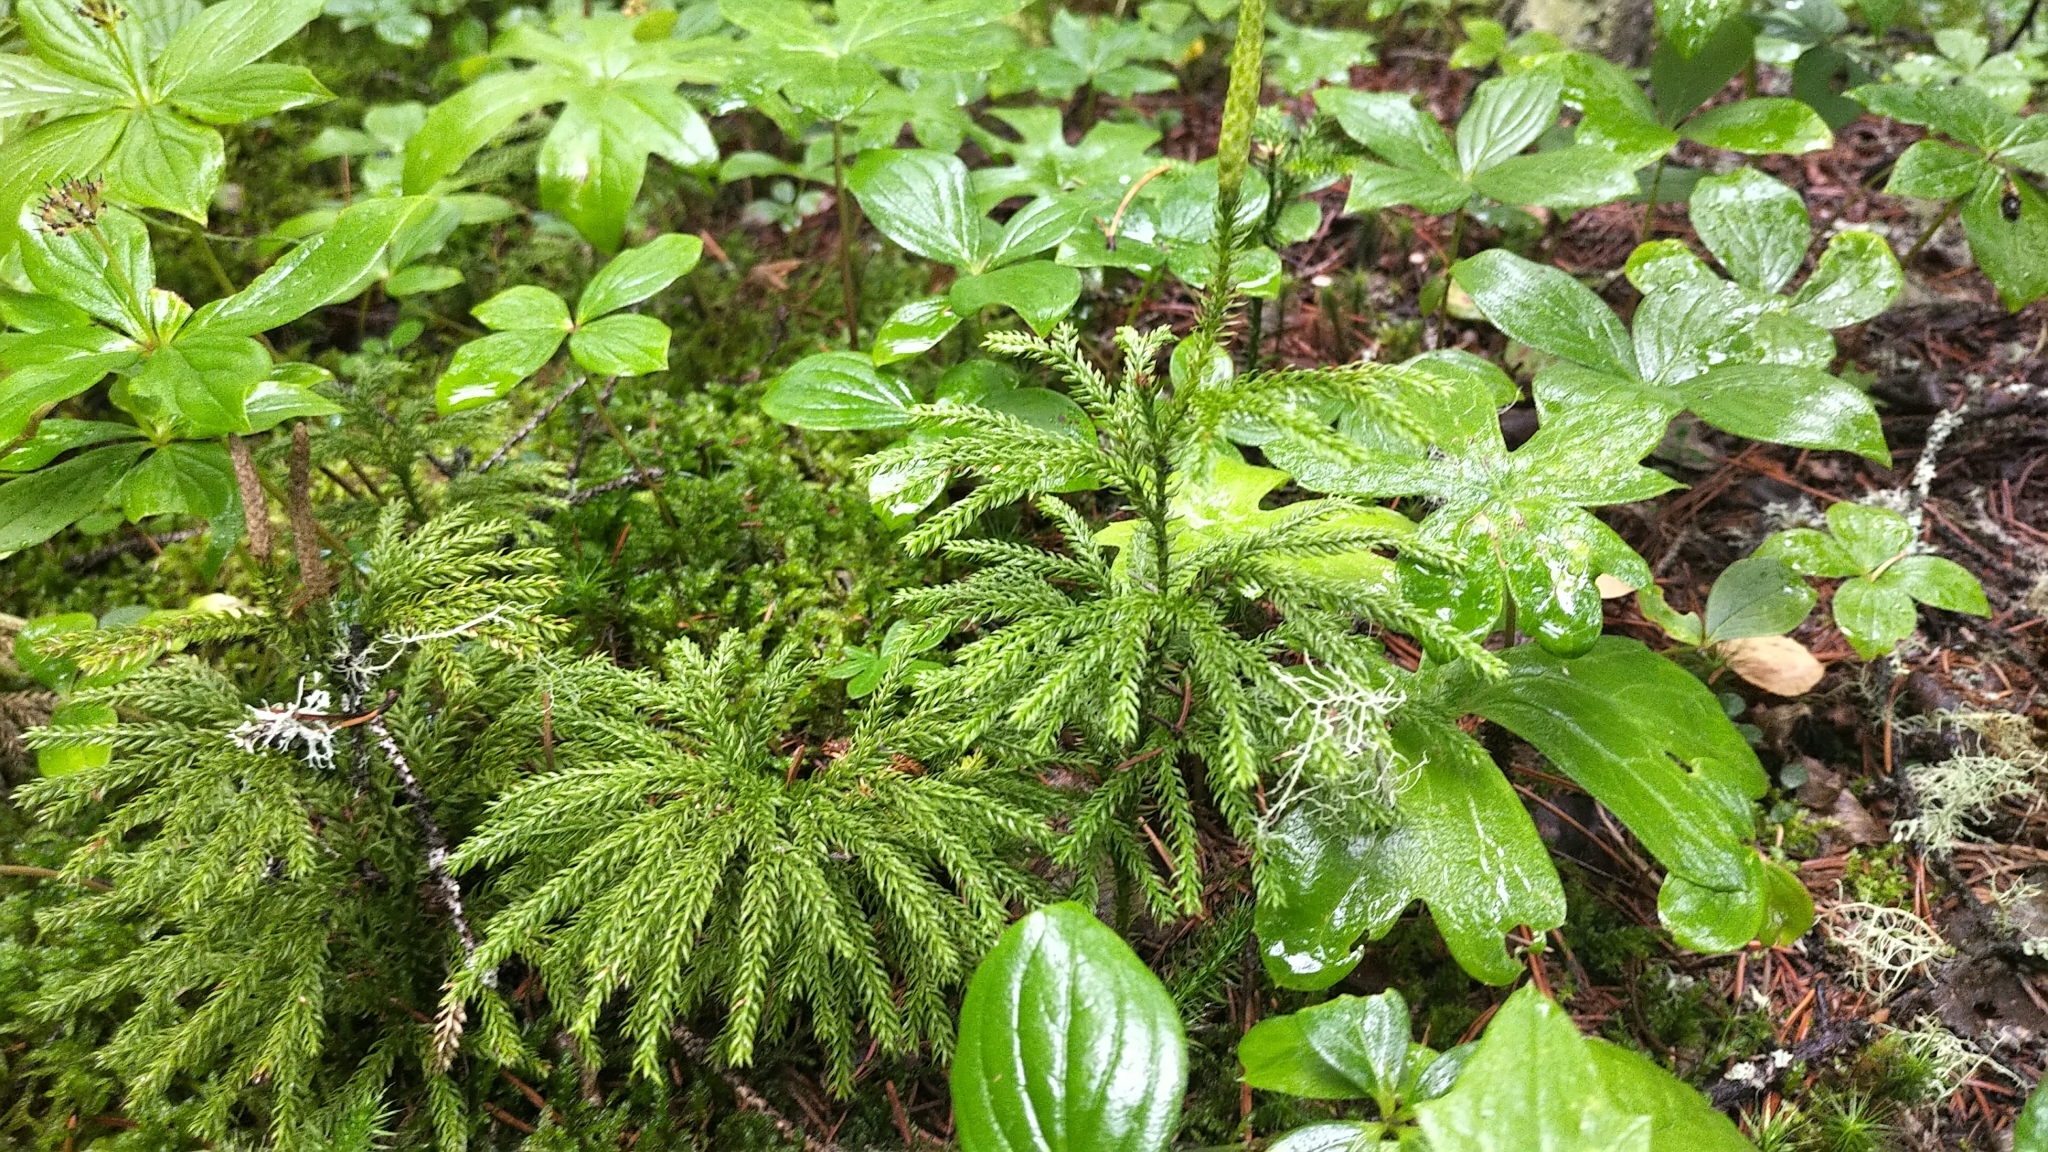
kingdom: Plantae
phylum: Tracheophyta
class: Lycopodiopsida
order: Lycopodiales
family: Lycopodiaceae
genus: Dendrolycopodium
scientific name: Dendrolycopodium dendroideum
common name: Northern tree-clubmoss
